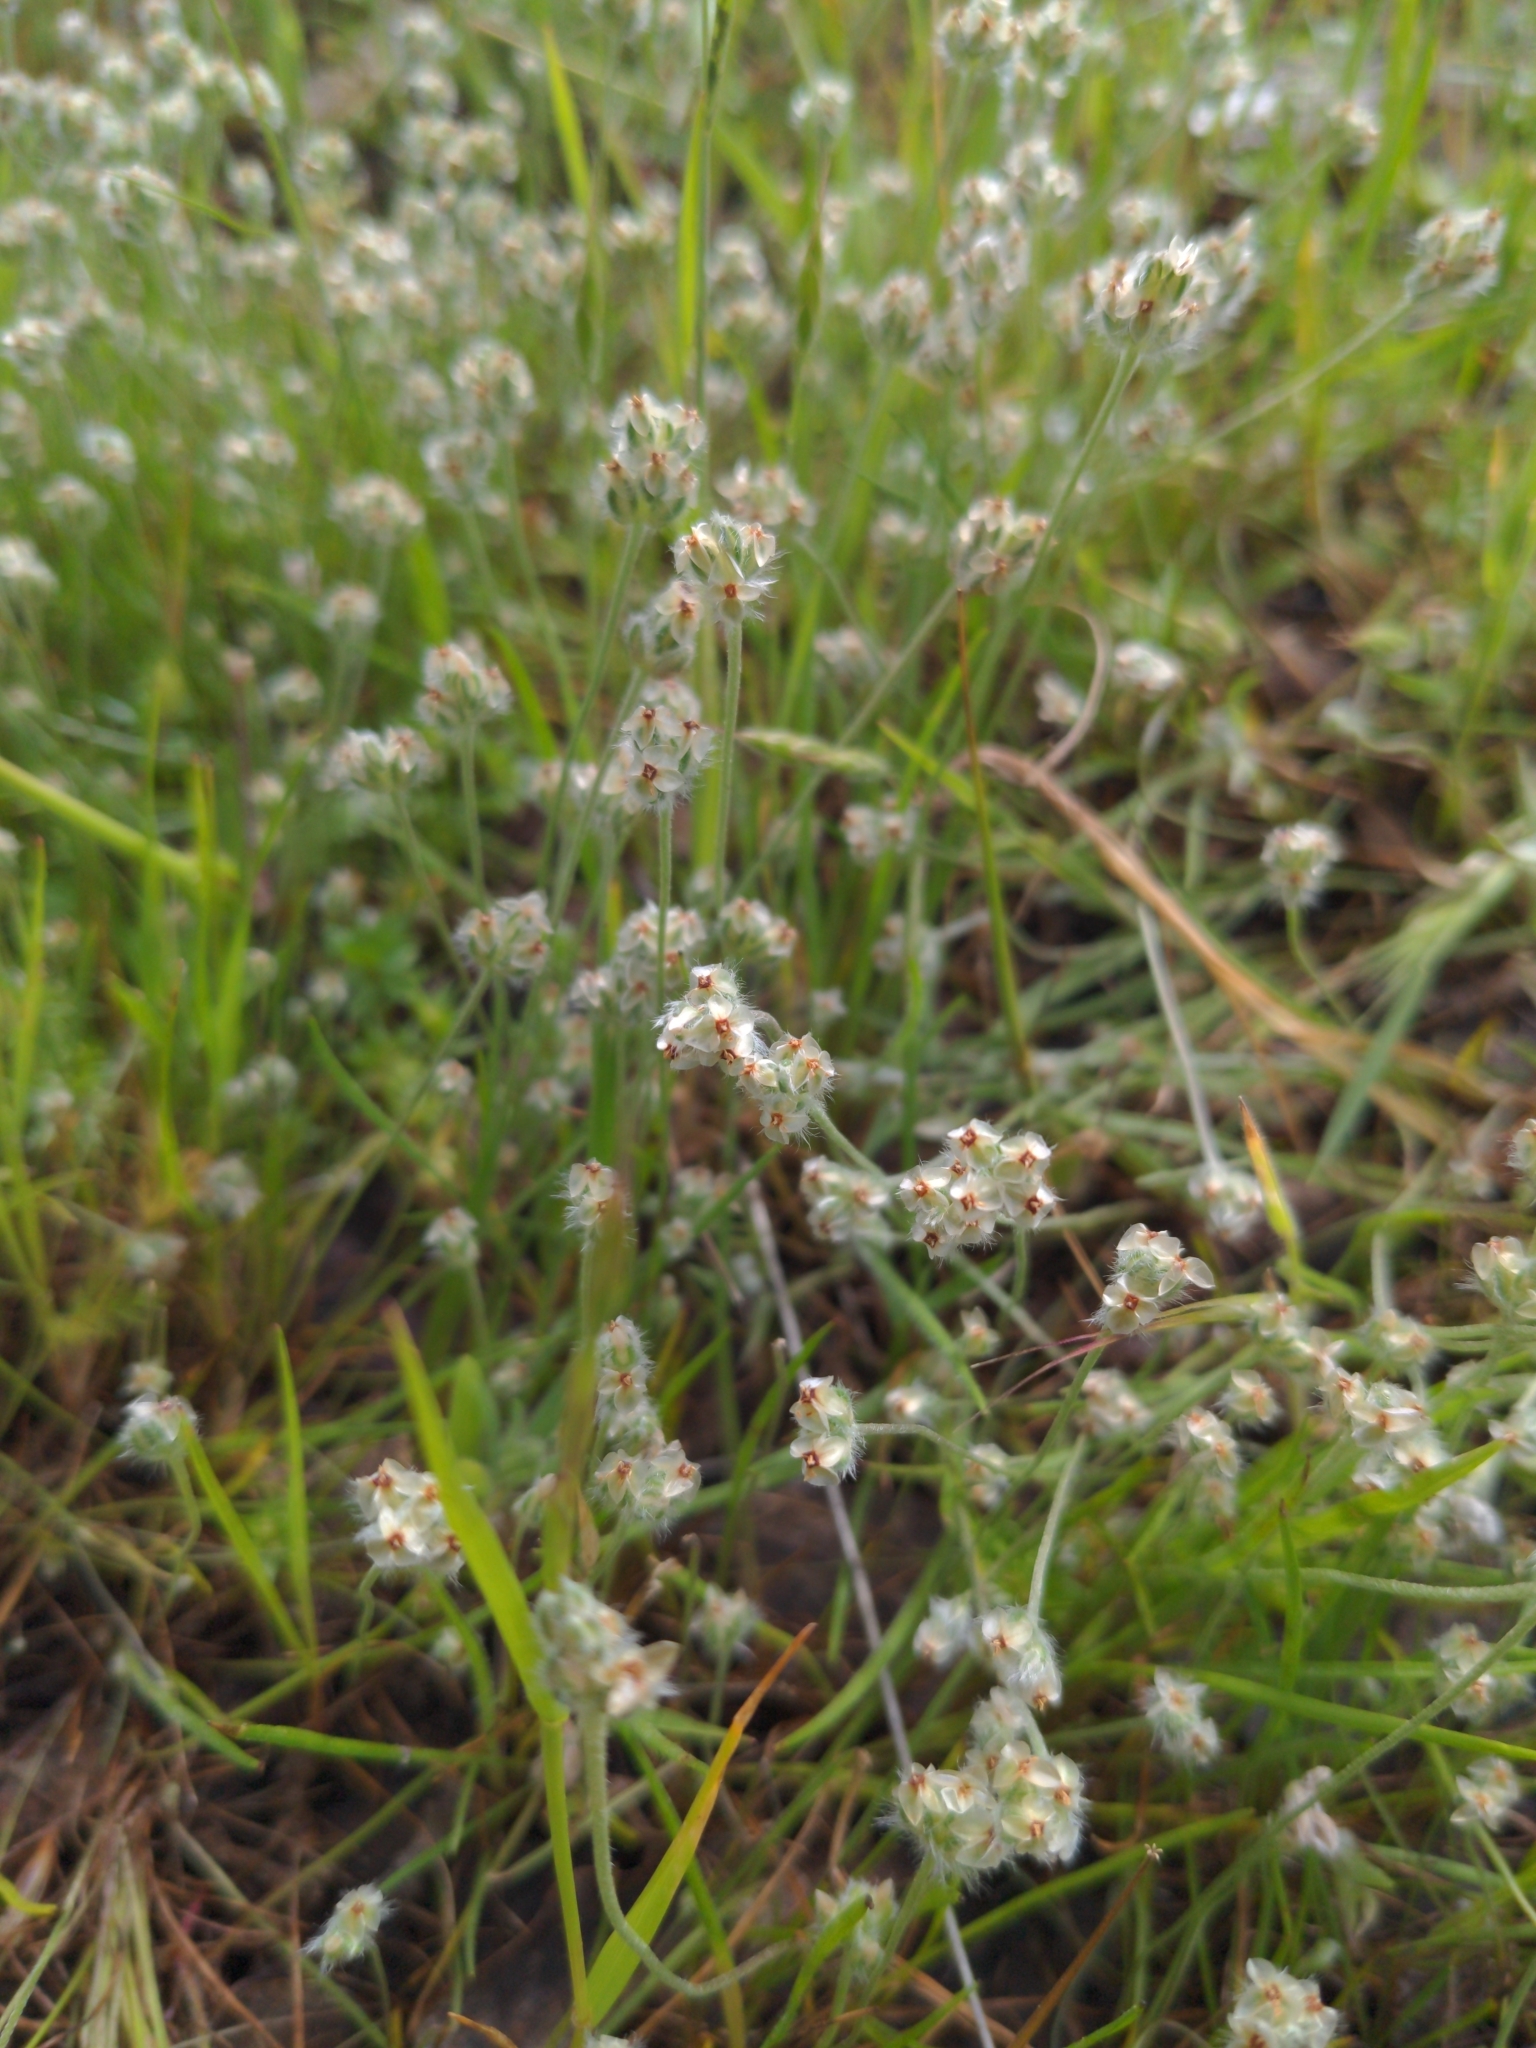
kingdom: Plantae
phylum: Tracheophyta
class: Magnoliopsida
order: Lamiales
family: Plantaginaceae
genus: Plantago
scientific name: Plantago erecta
